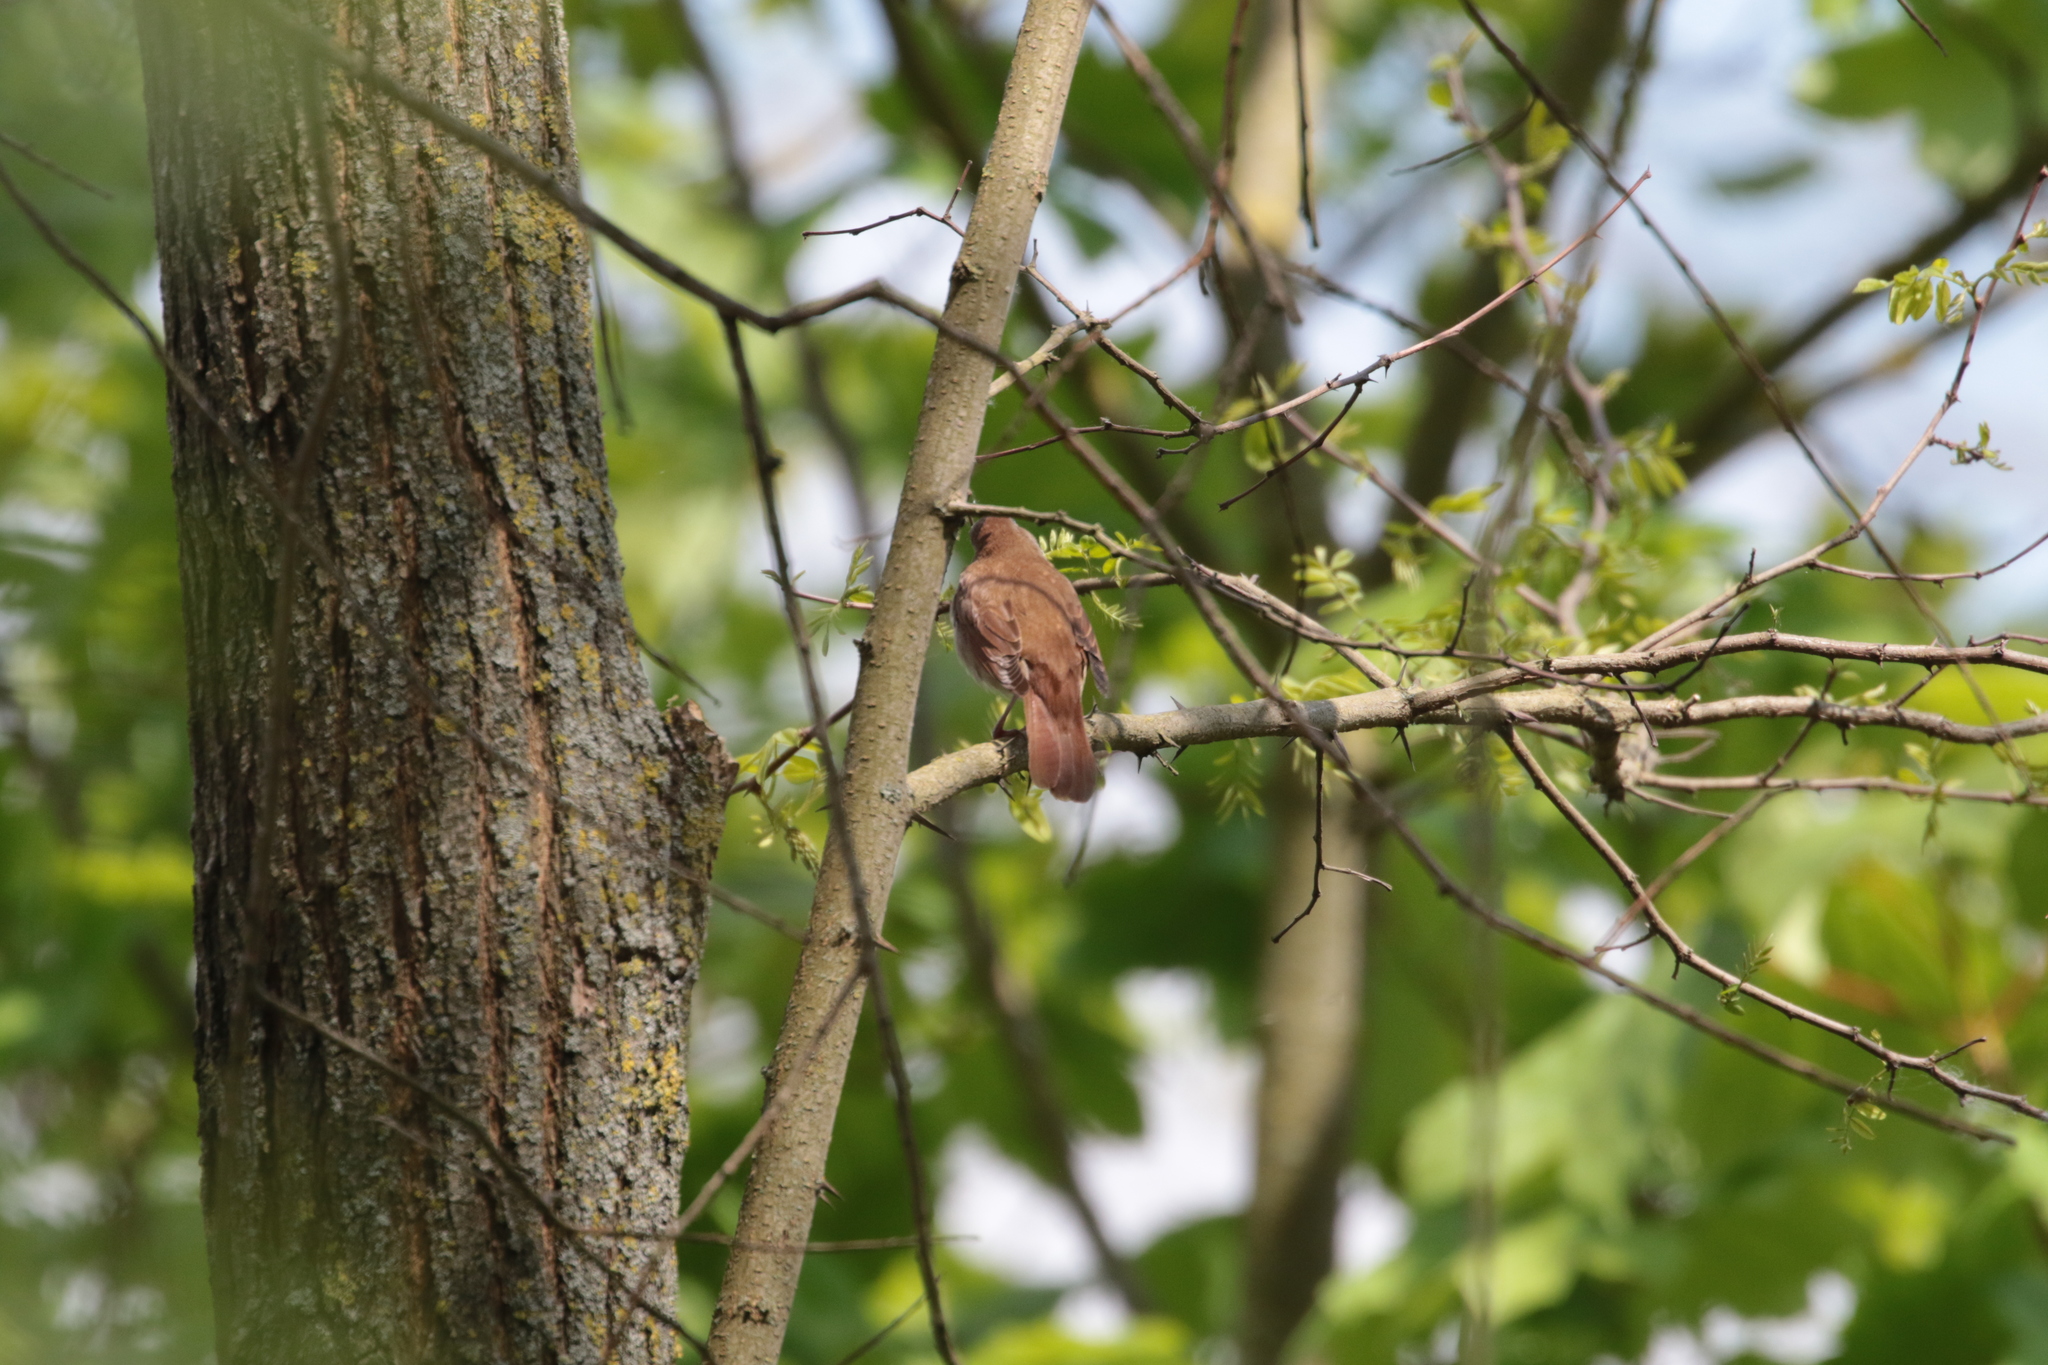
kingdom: Animalia
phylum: Chordata
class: Aves
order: Passeriformes
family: Muscicapidae
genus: Luscinia
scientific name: Luscinia megarhynchos
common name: Common nightingale
